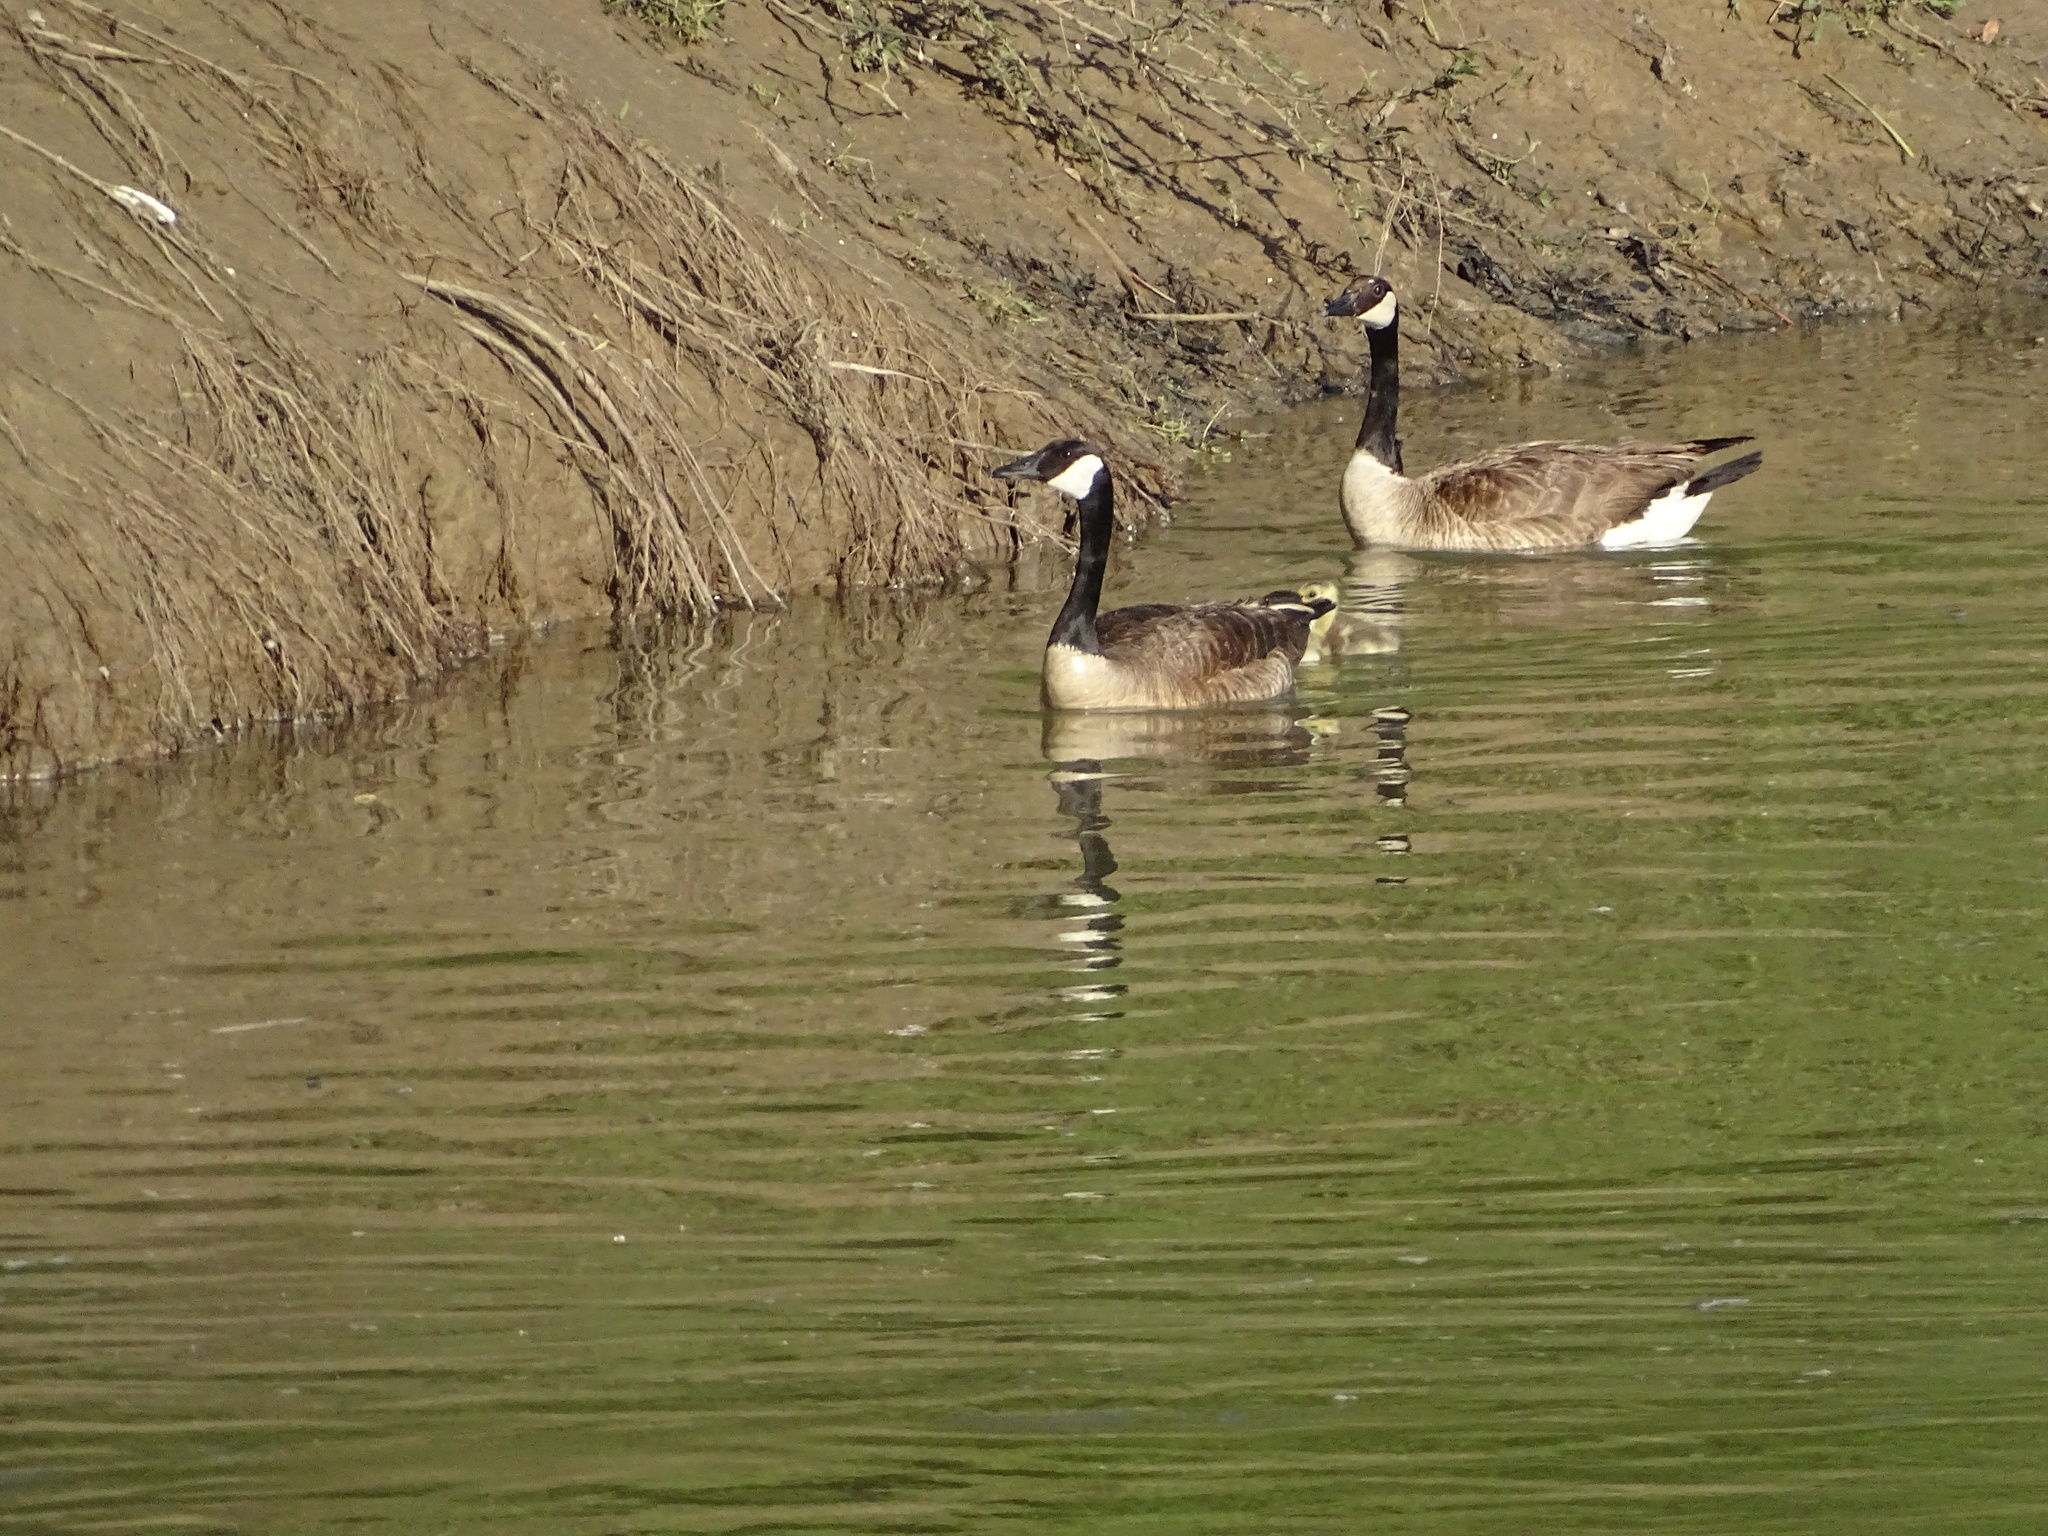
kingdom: Animalia
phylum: Chordata
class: Aves
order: Anseriformes
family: Anatidae
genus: Branta
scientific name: Branta canadensis
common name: Canada goose
